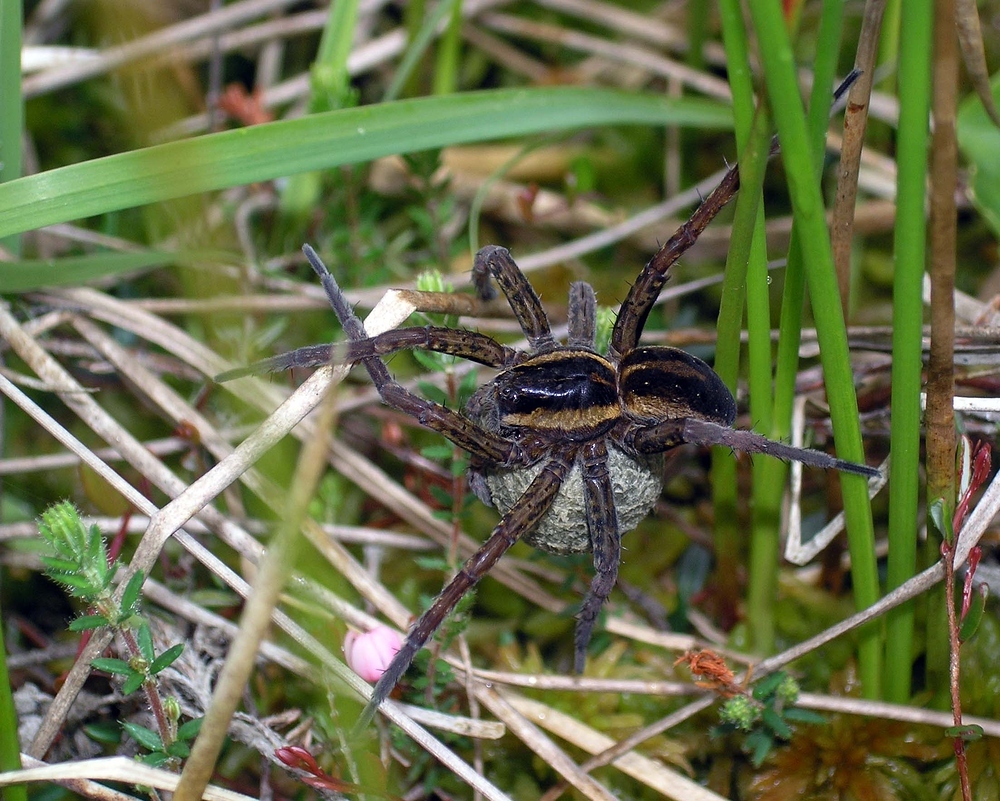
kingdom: Animalia
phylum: Arthropoda
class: Arachnida
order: Araneae
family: Pisauridae
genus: Dolomedes
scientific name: Dolomedes
